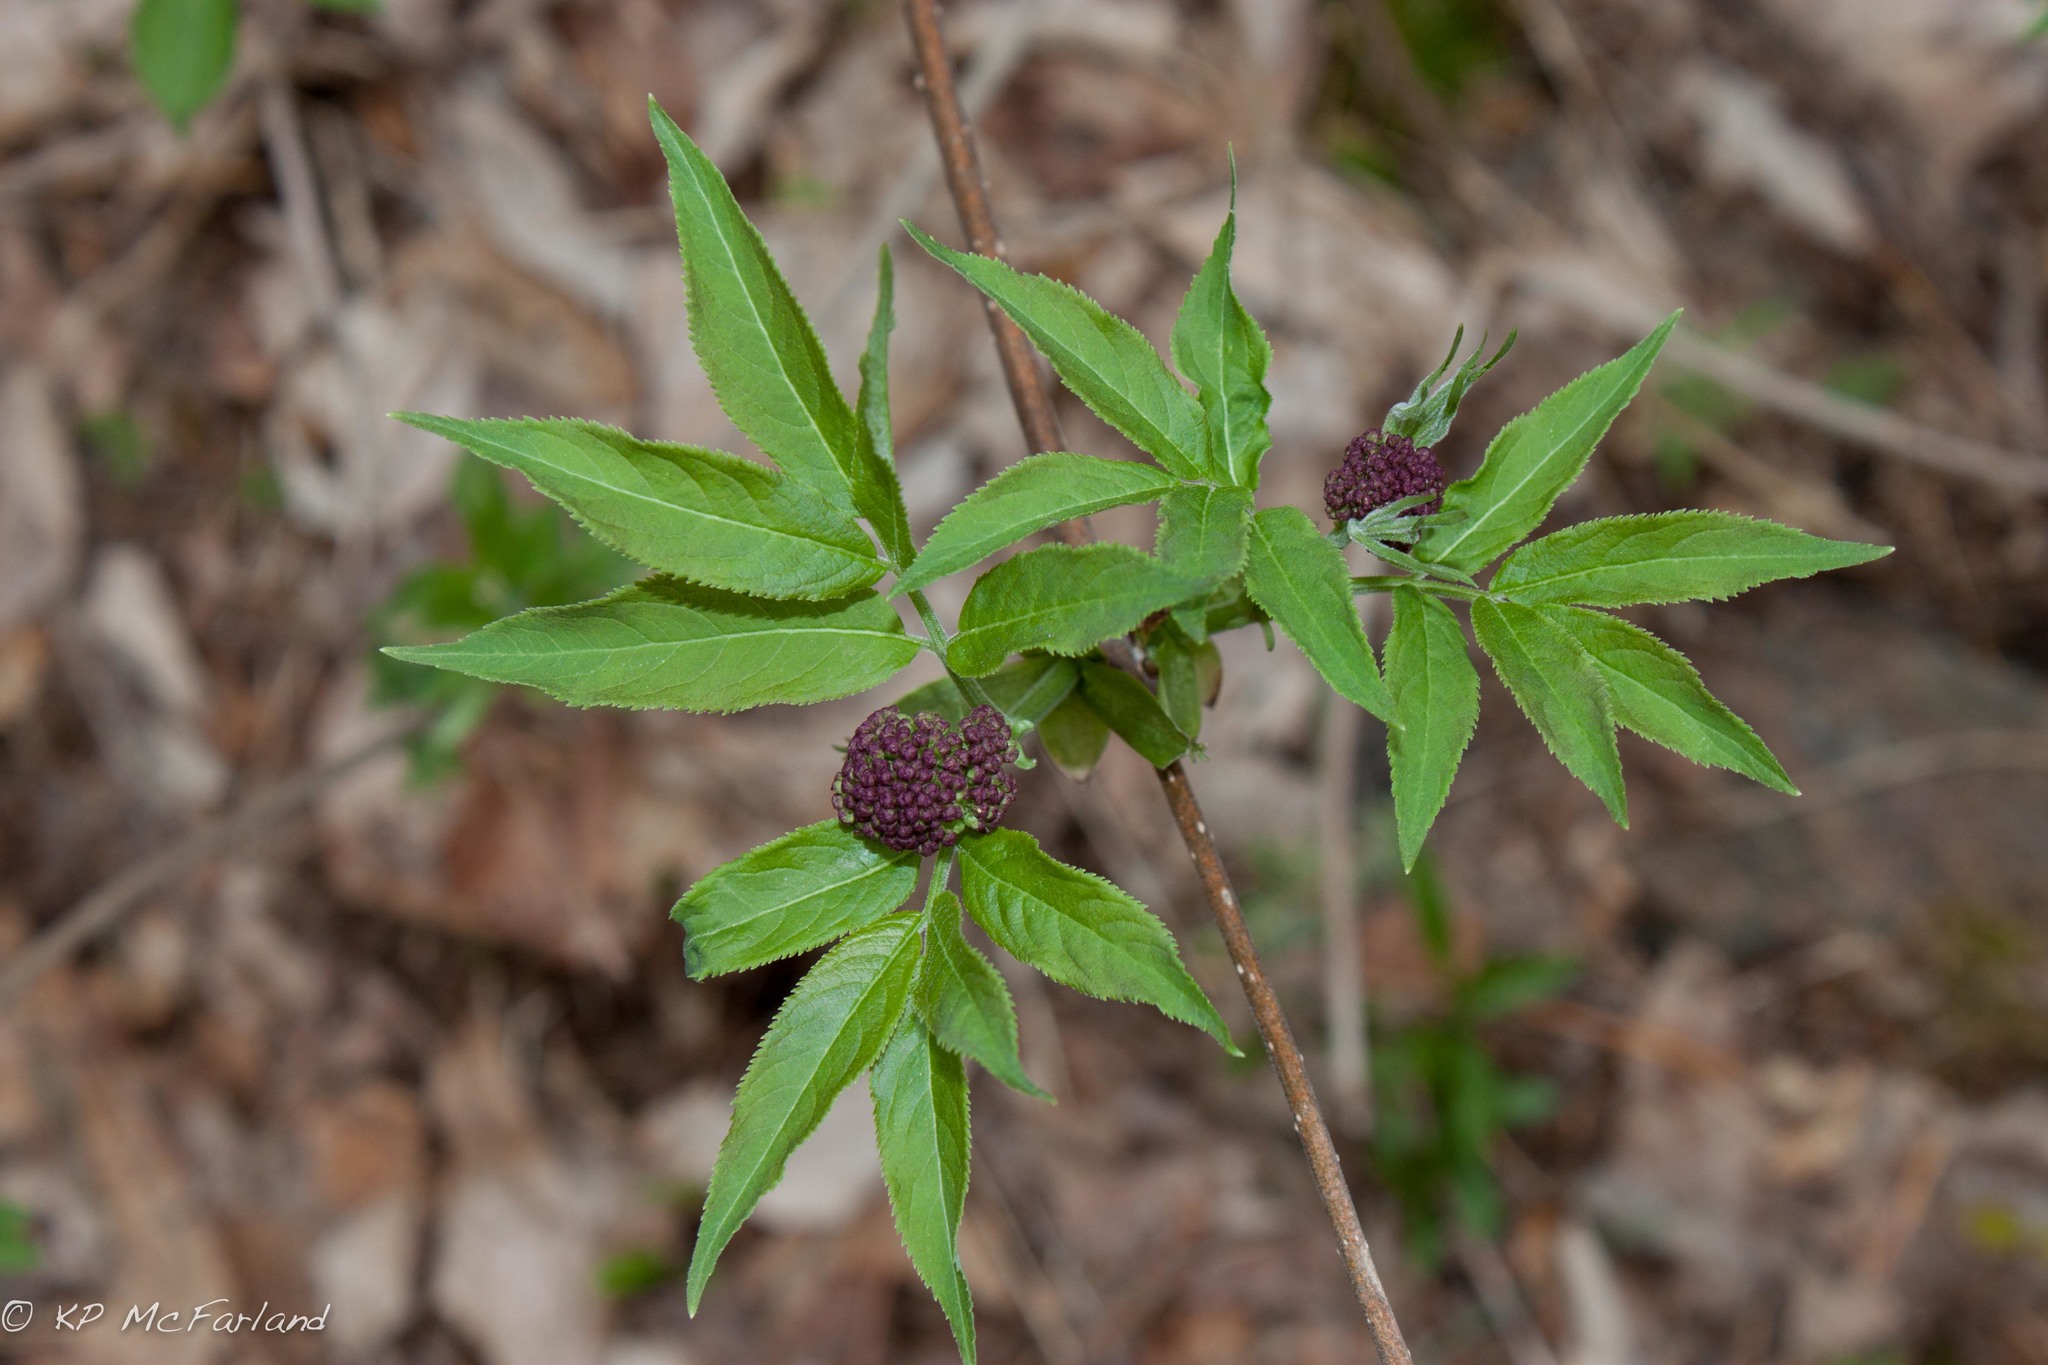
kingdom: Plantae
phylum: Tracheophyta
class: Magnoliopsida
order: Dipsacales
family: Viburnaceae
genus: Sambucus
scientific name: Sambucus racemosa
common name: Red-berried elder
